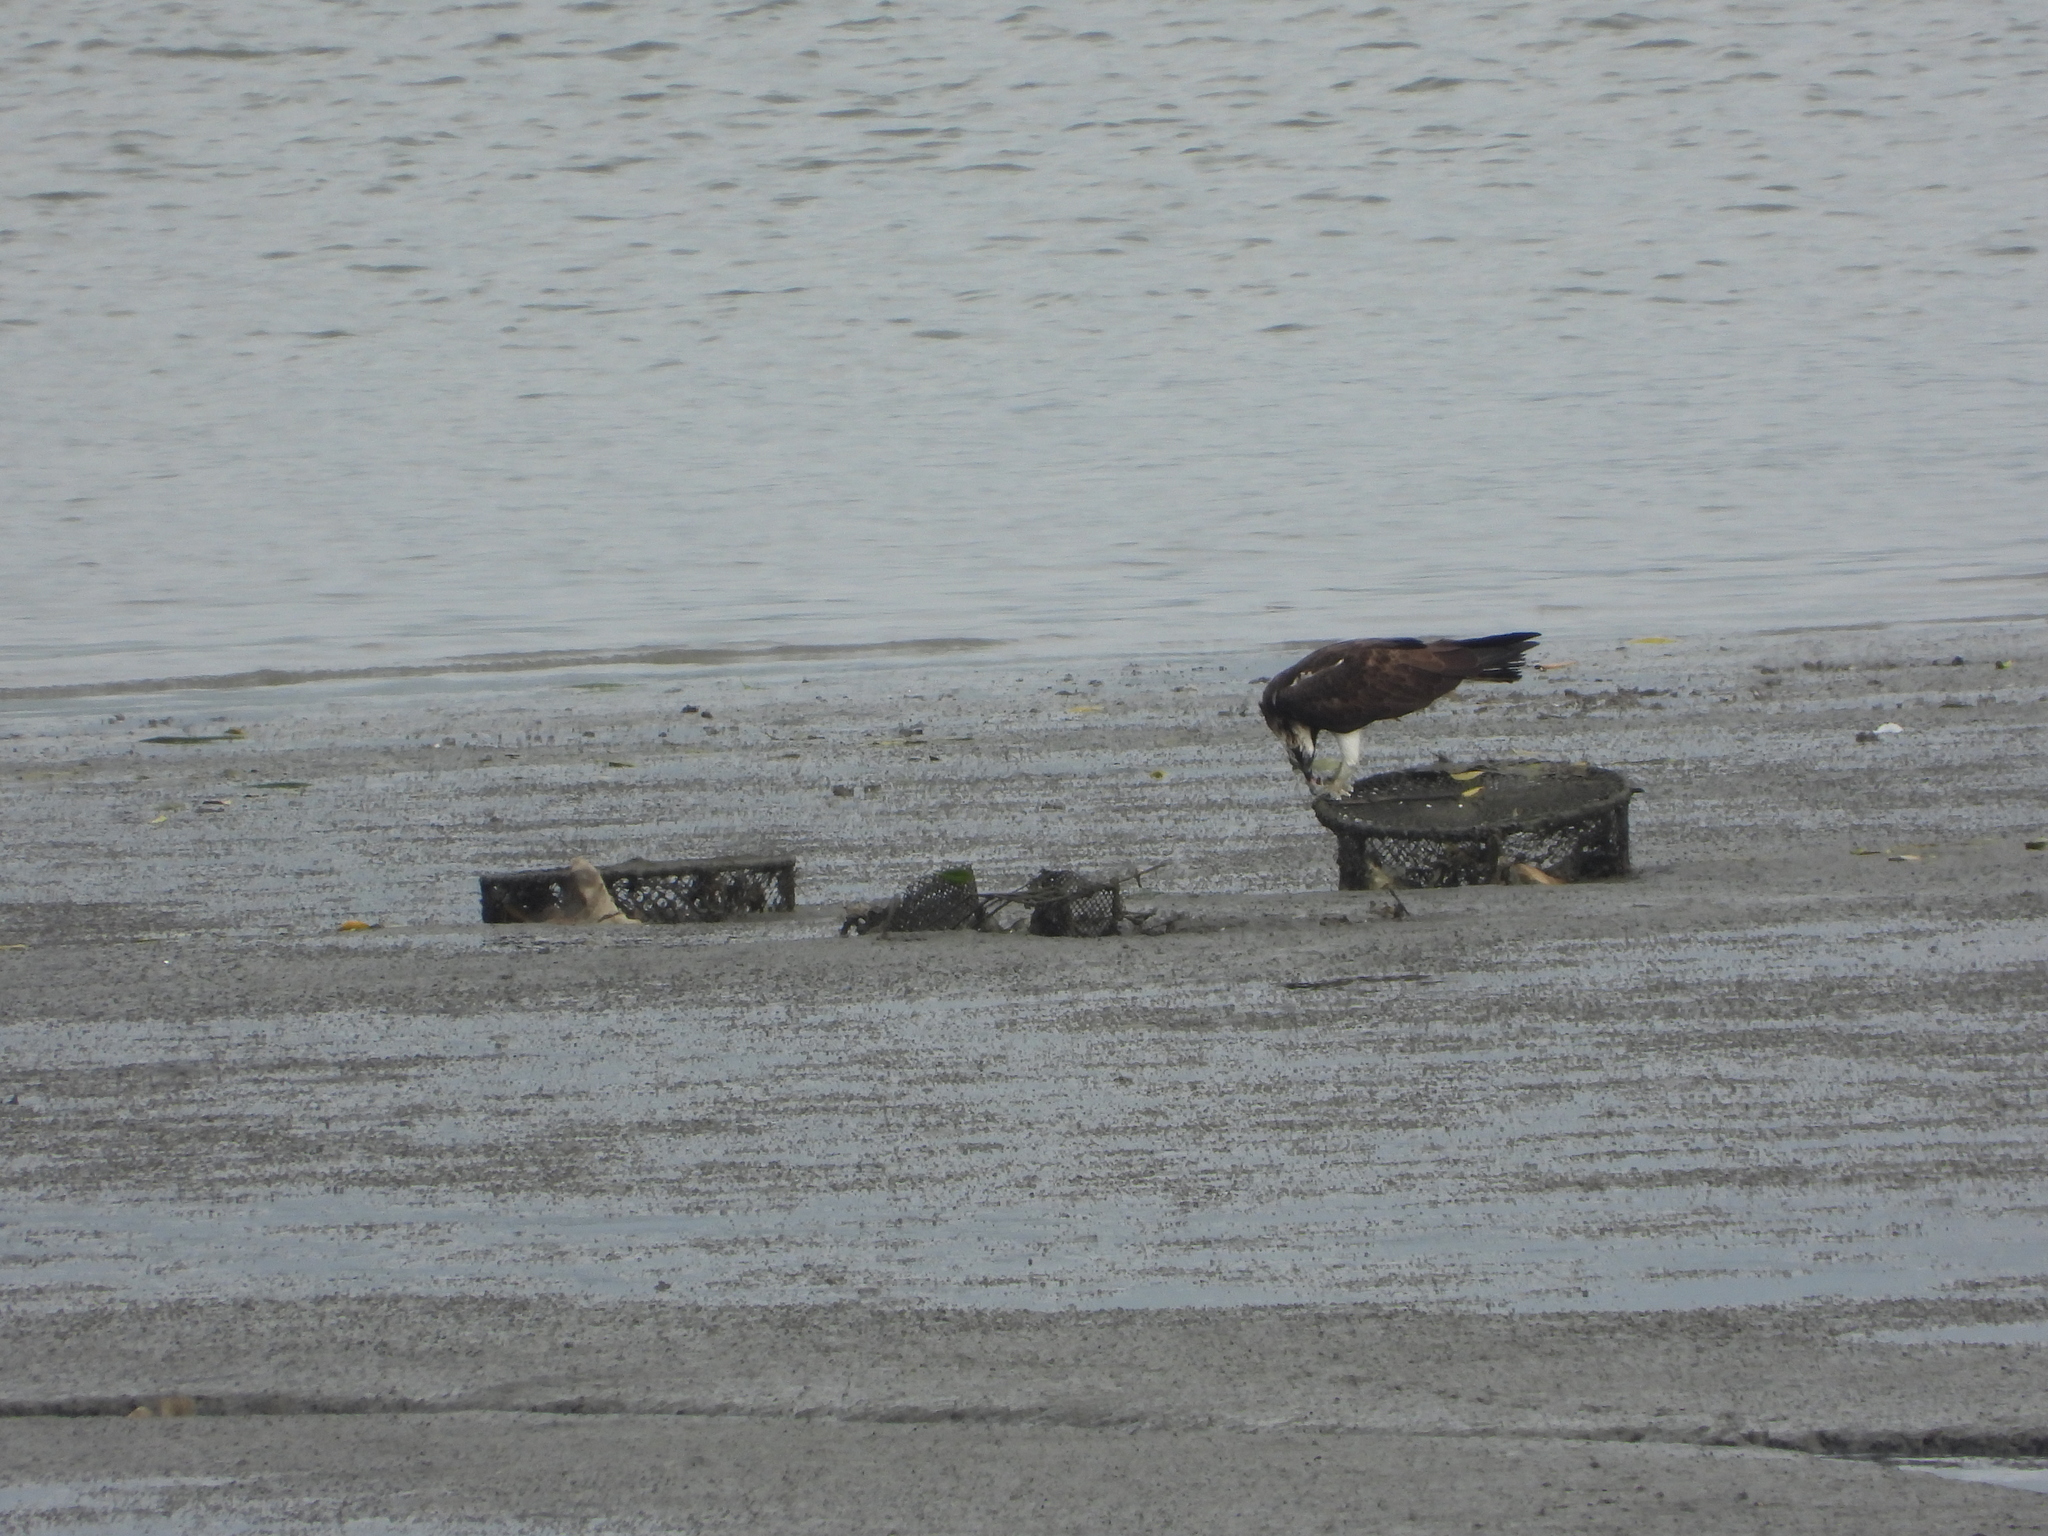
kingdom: Animalia
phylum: Chordata
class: Aves
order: Accipitriformes
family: Pandionidae
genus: Pandion
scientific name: Pandion haliaetus
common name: Osprey
